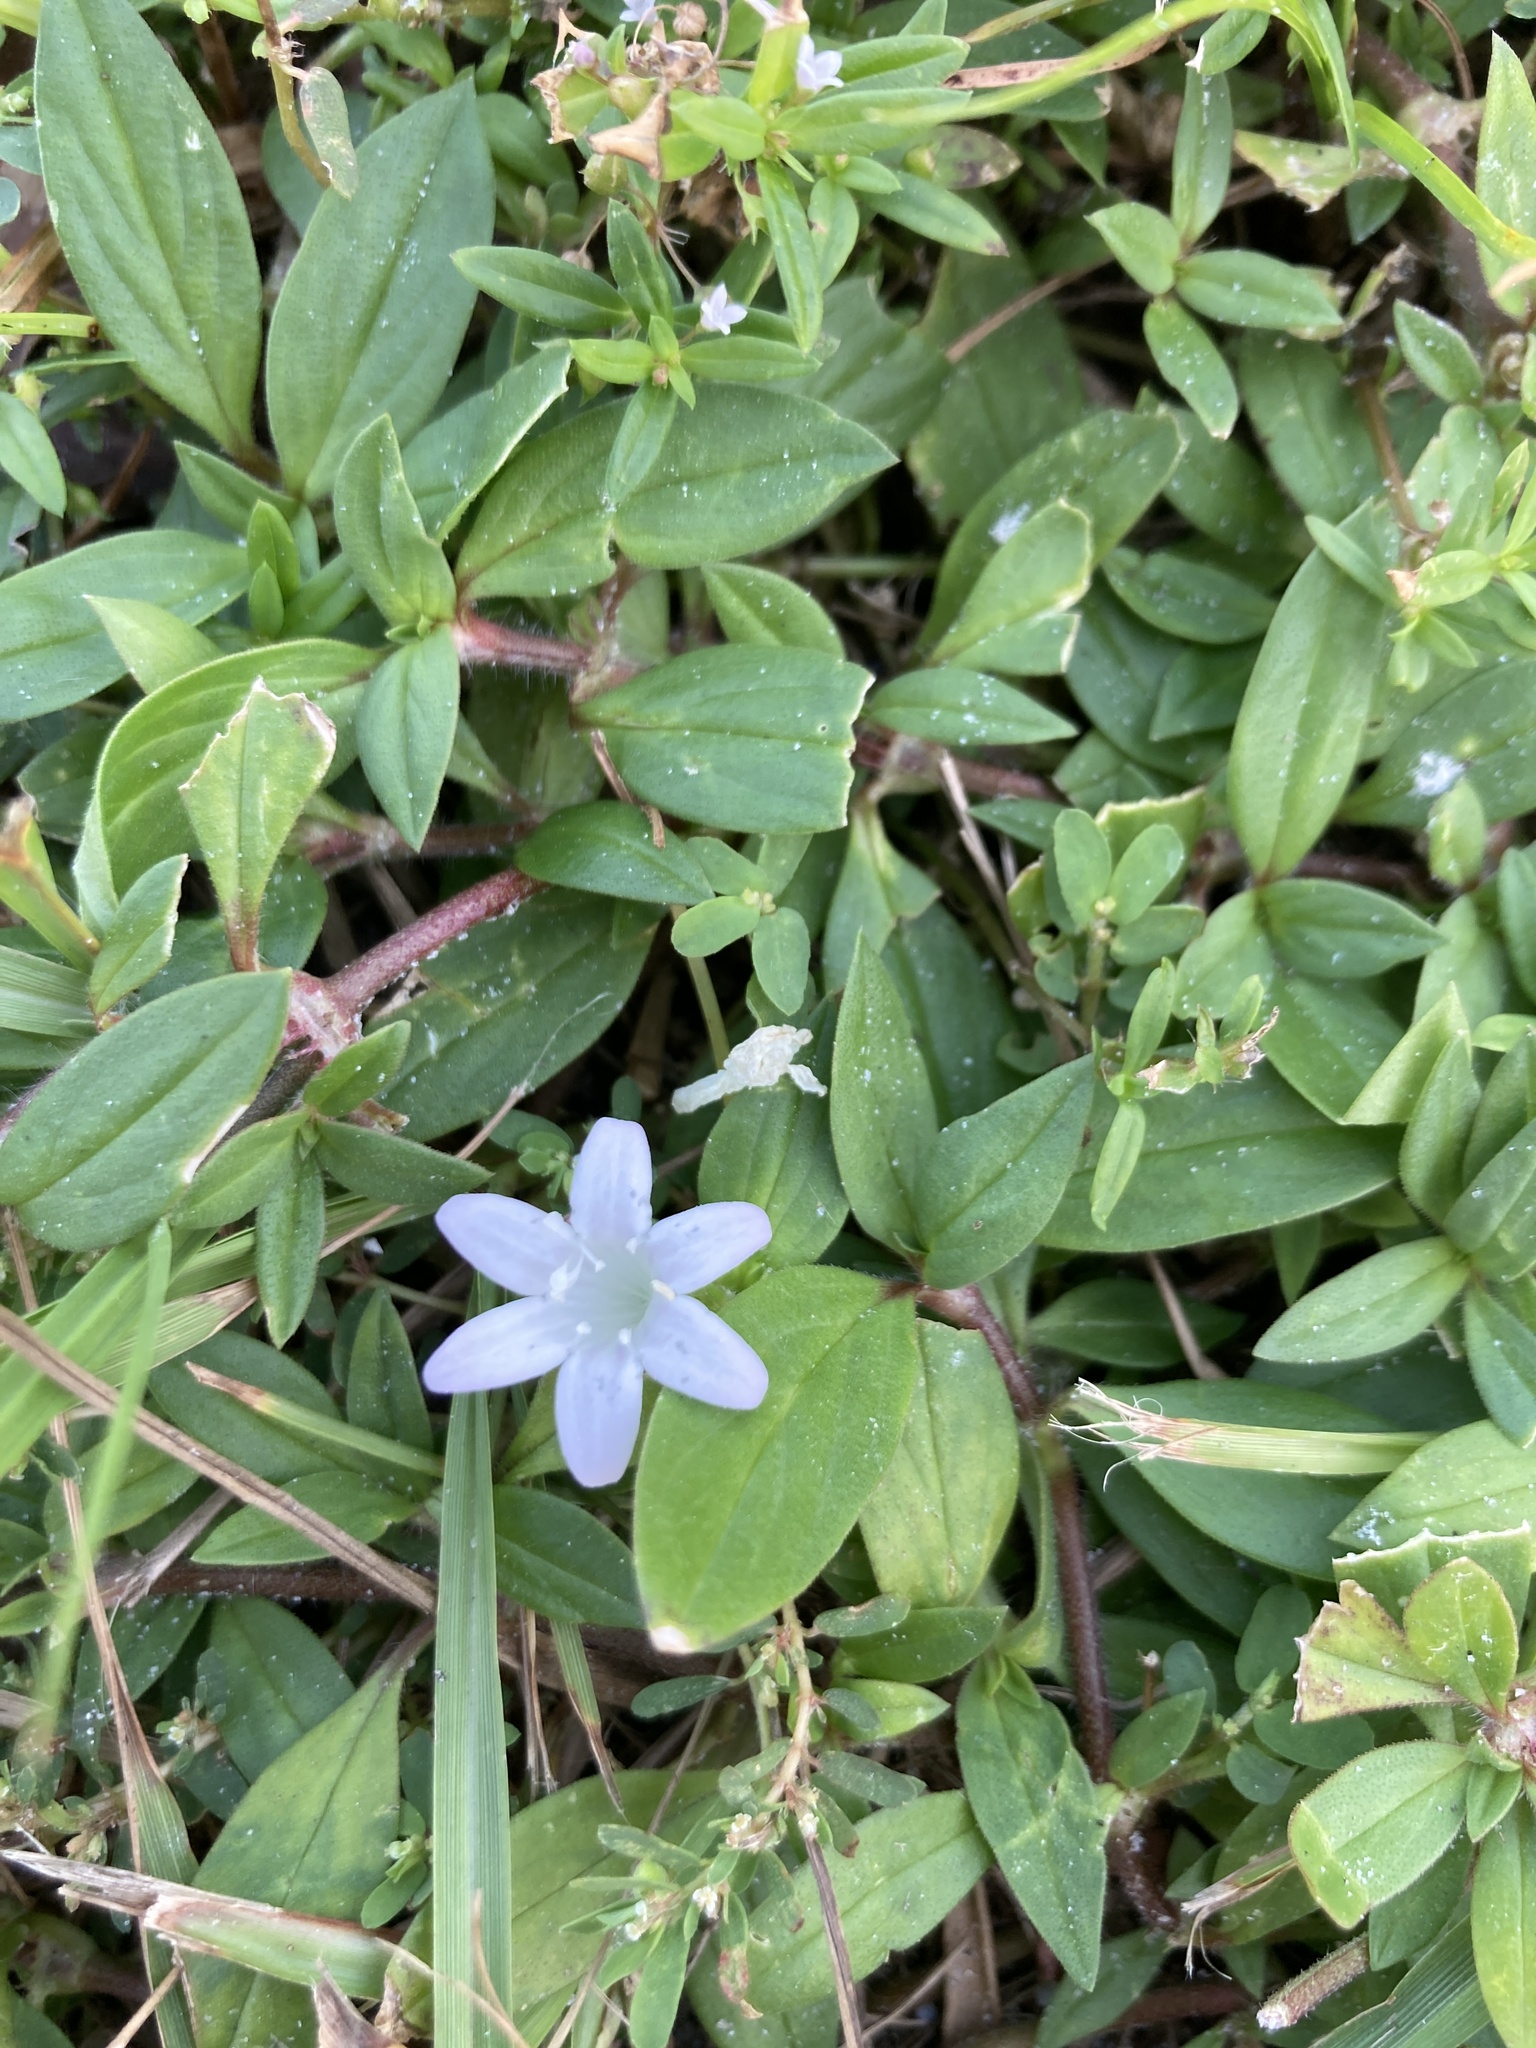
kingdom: Plantae
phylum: Tracheophyta
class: Magnoliopsida
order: Gentianales
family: Rubiaceae
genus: Richardia
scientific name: Richardia grandiflora
